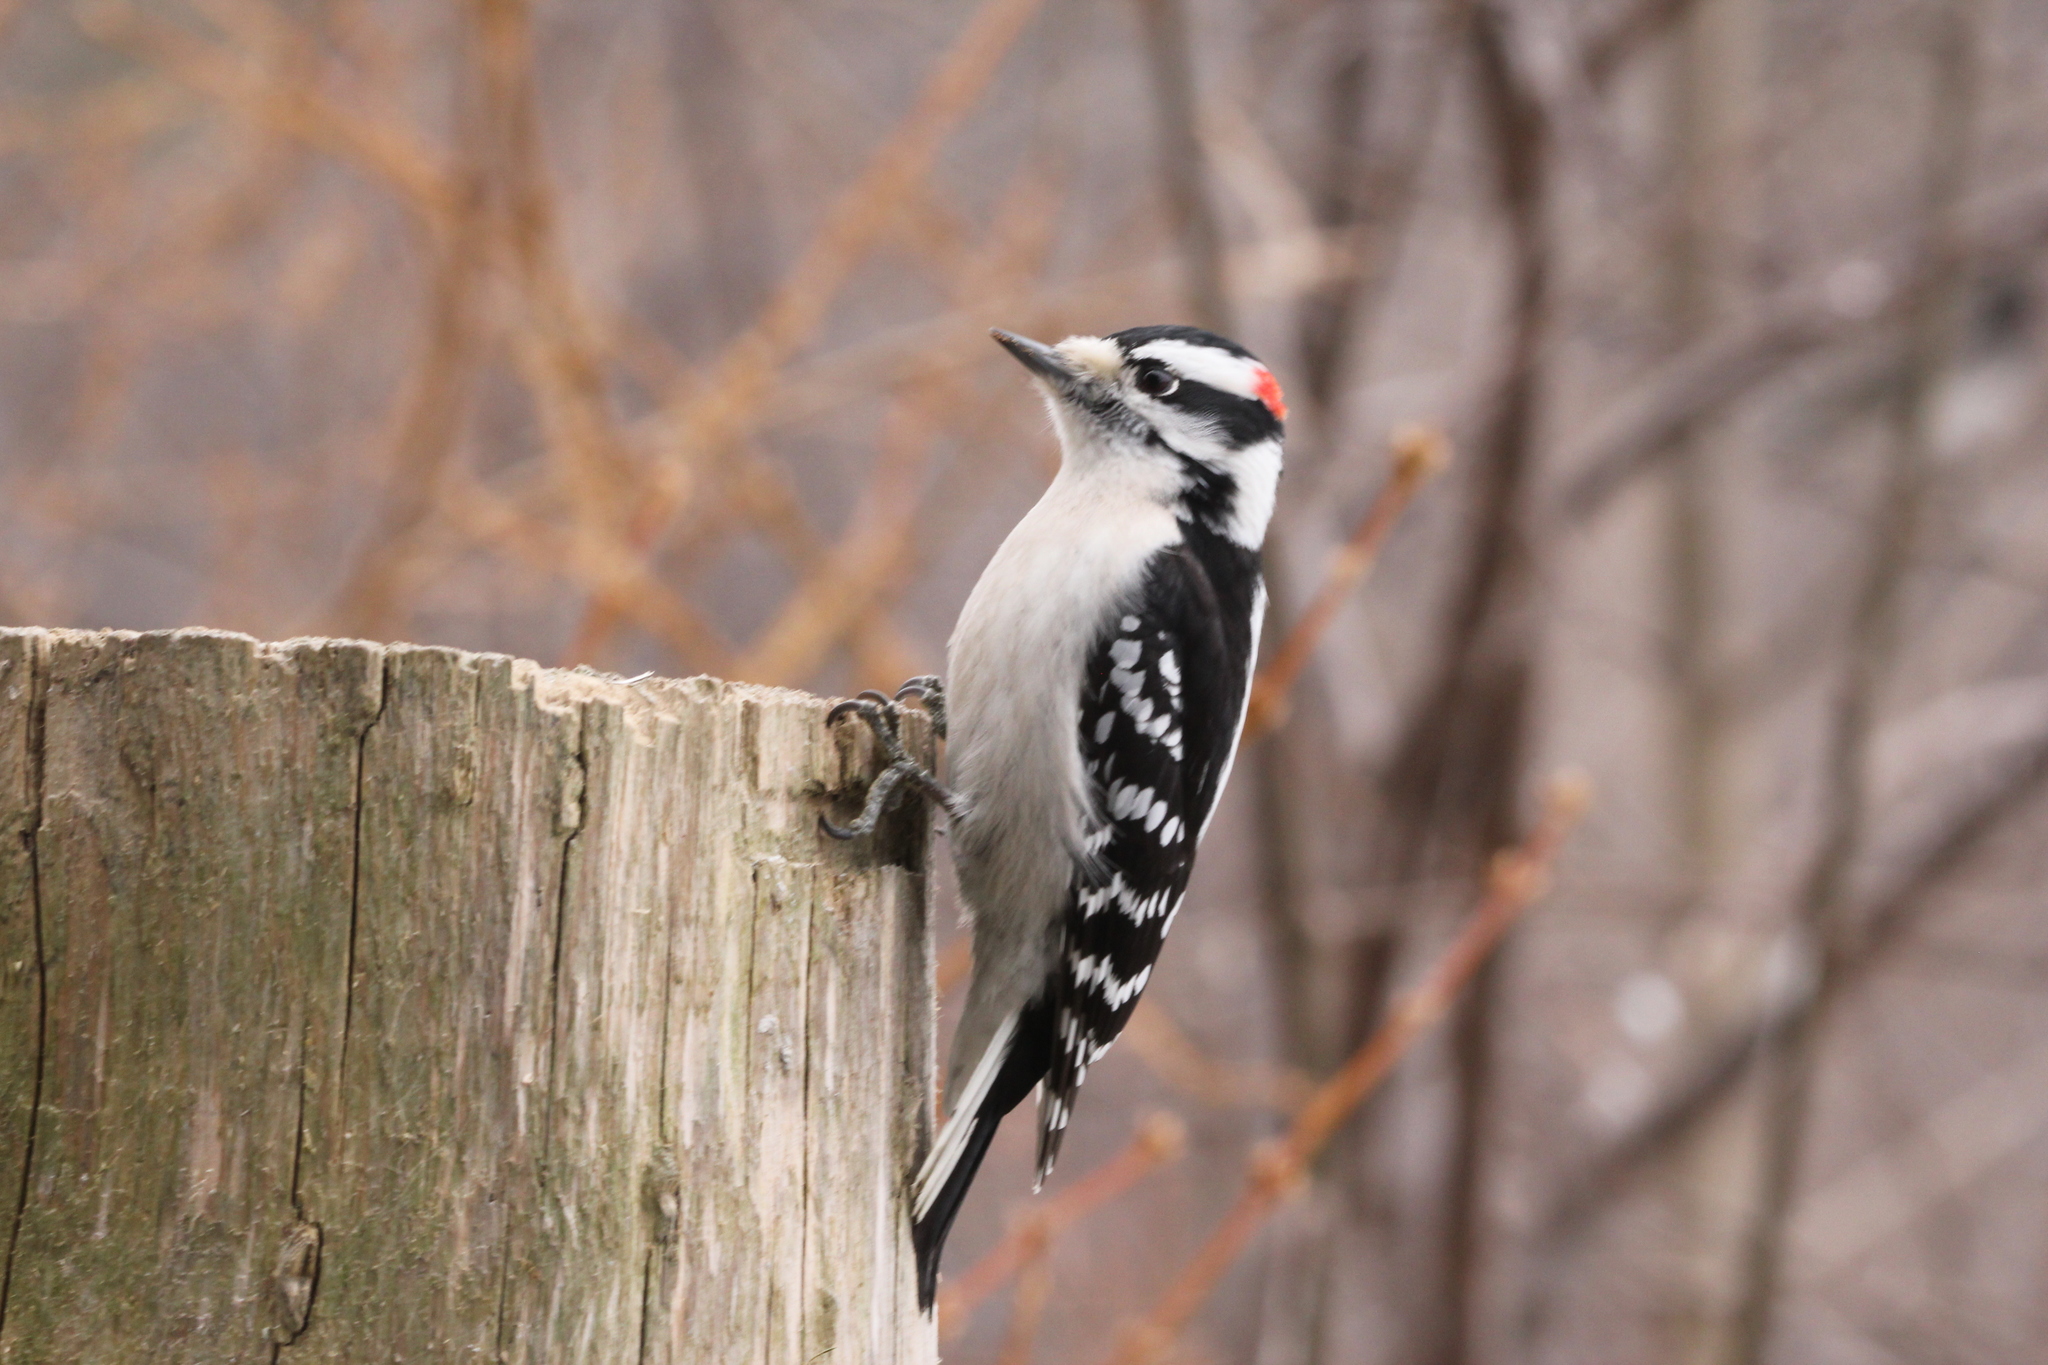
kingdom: Animalia
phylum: Chordata
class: Aves
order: Piciformes
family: Picidae
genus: Dryobates
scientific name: Dryobates pubescens
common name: Downy woodpecker
